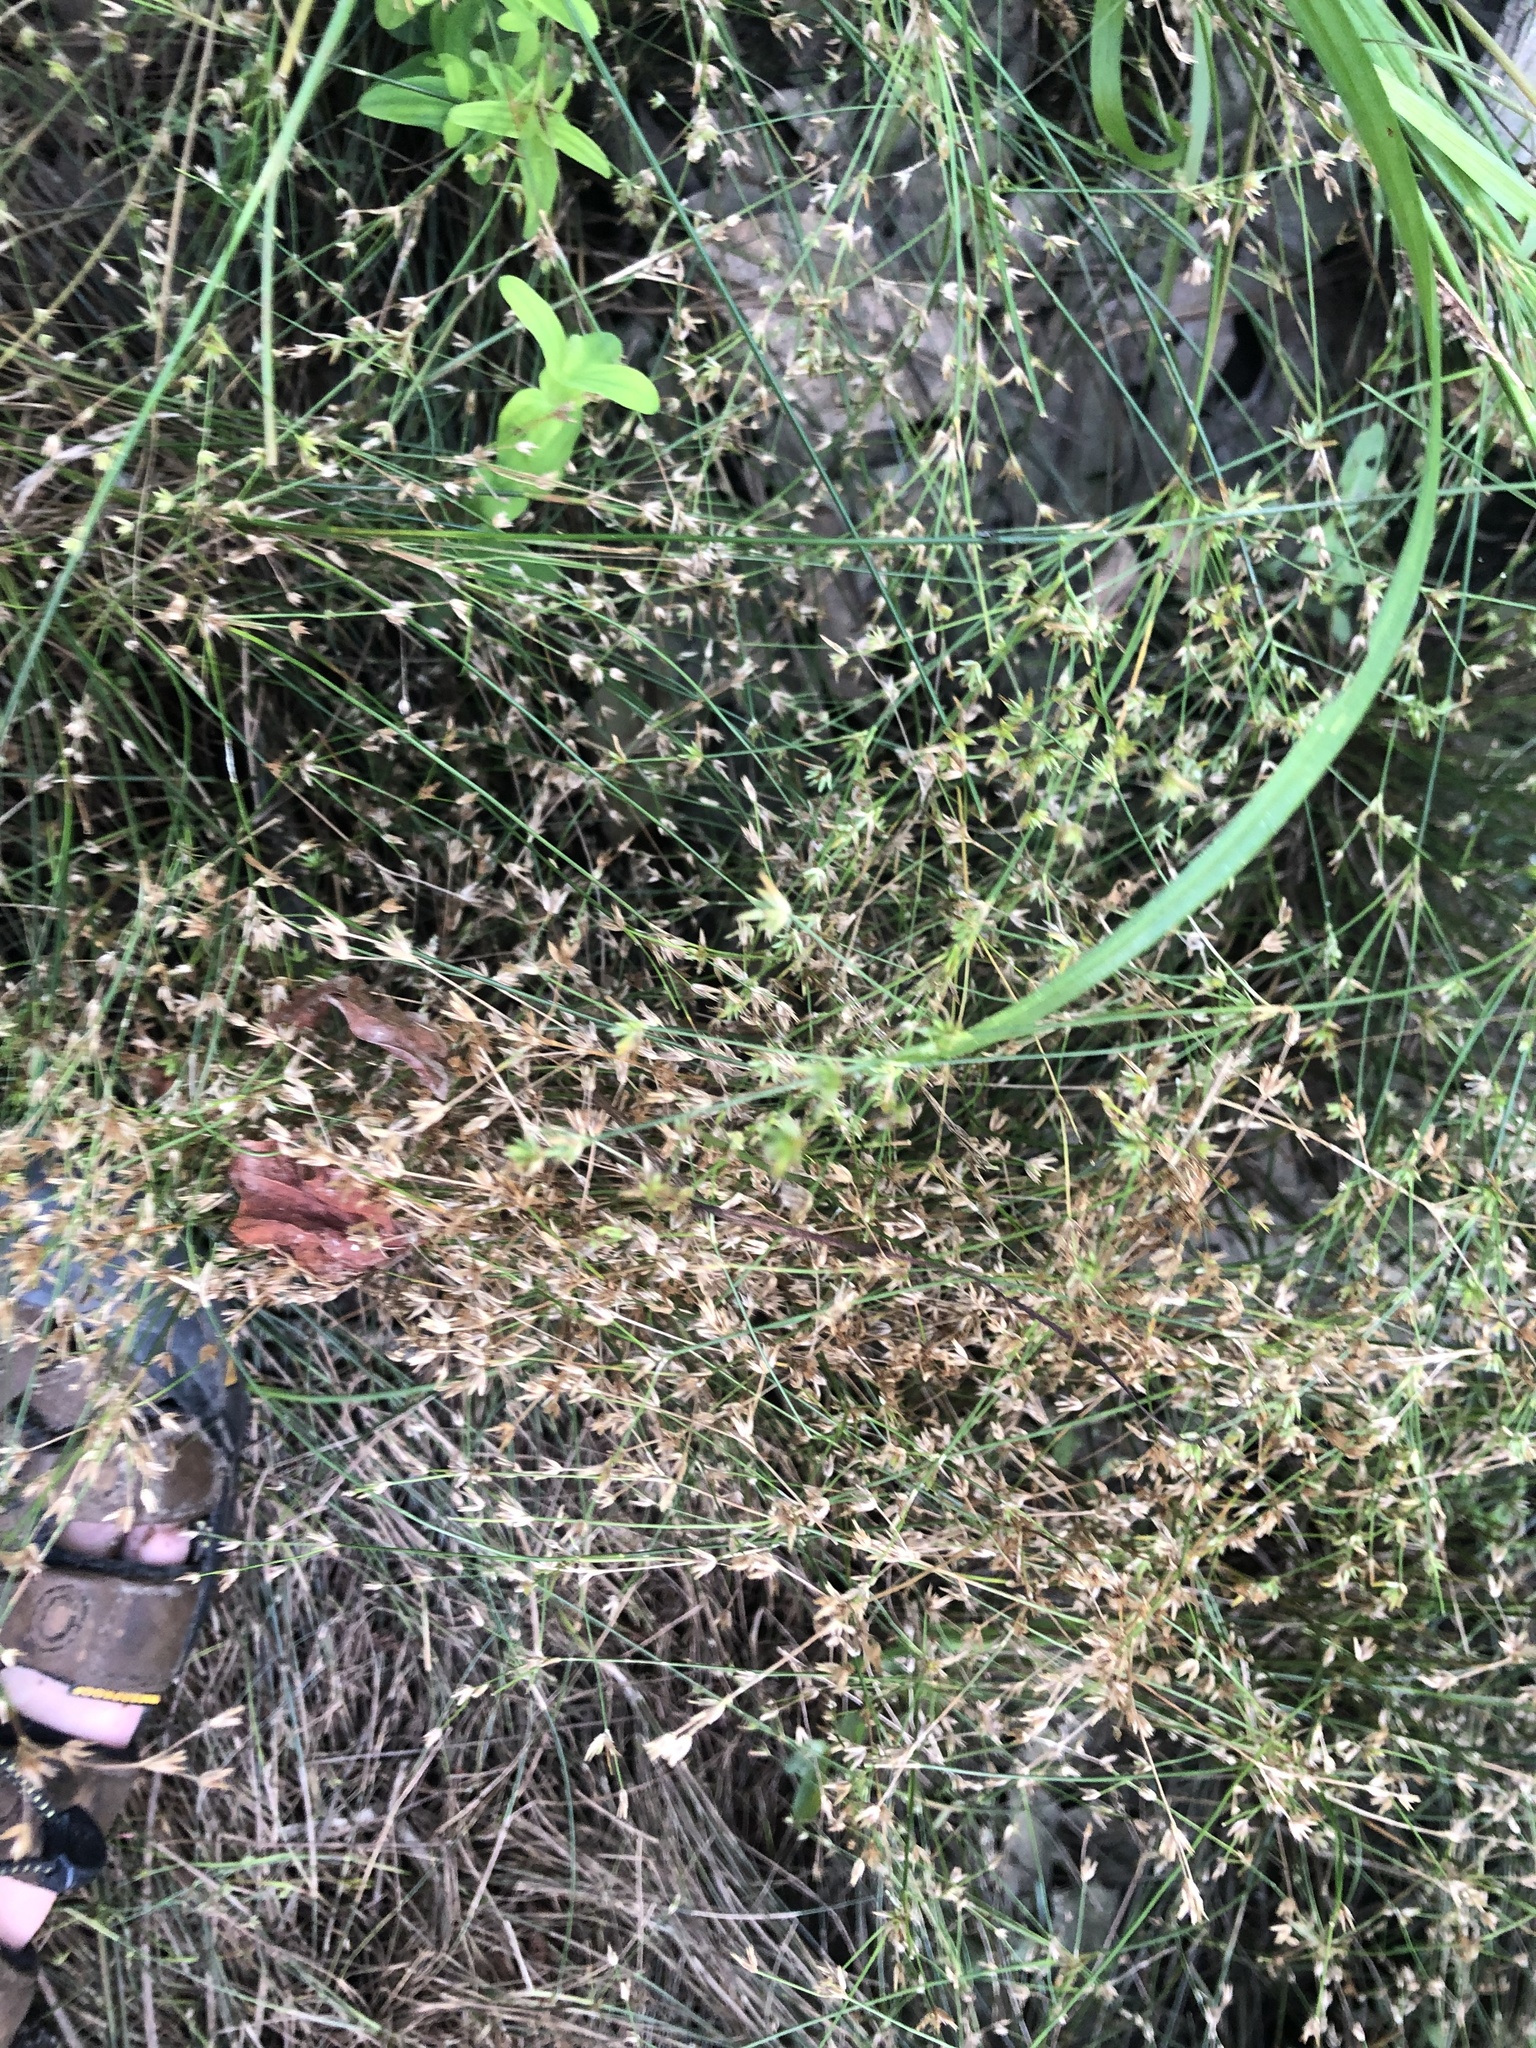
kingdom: Plantae
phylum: Tracheophyta
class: Liliopsida
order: Poales
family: Juncaceae
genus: Juncus
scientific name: Juncus diffusissimus
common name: Slimpod rush
